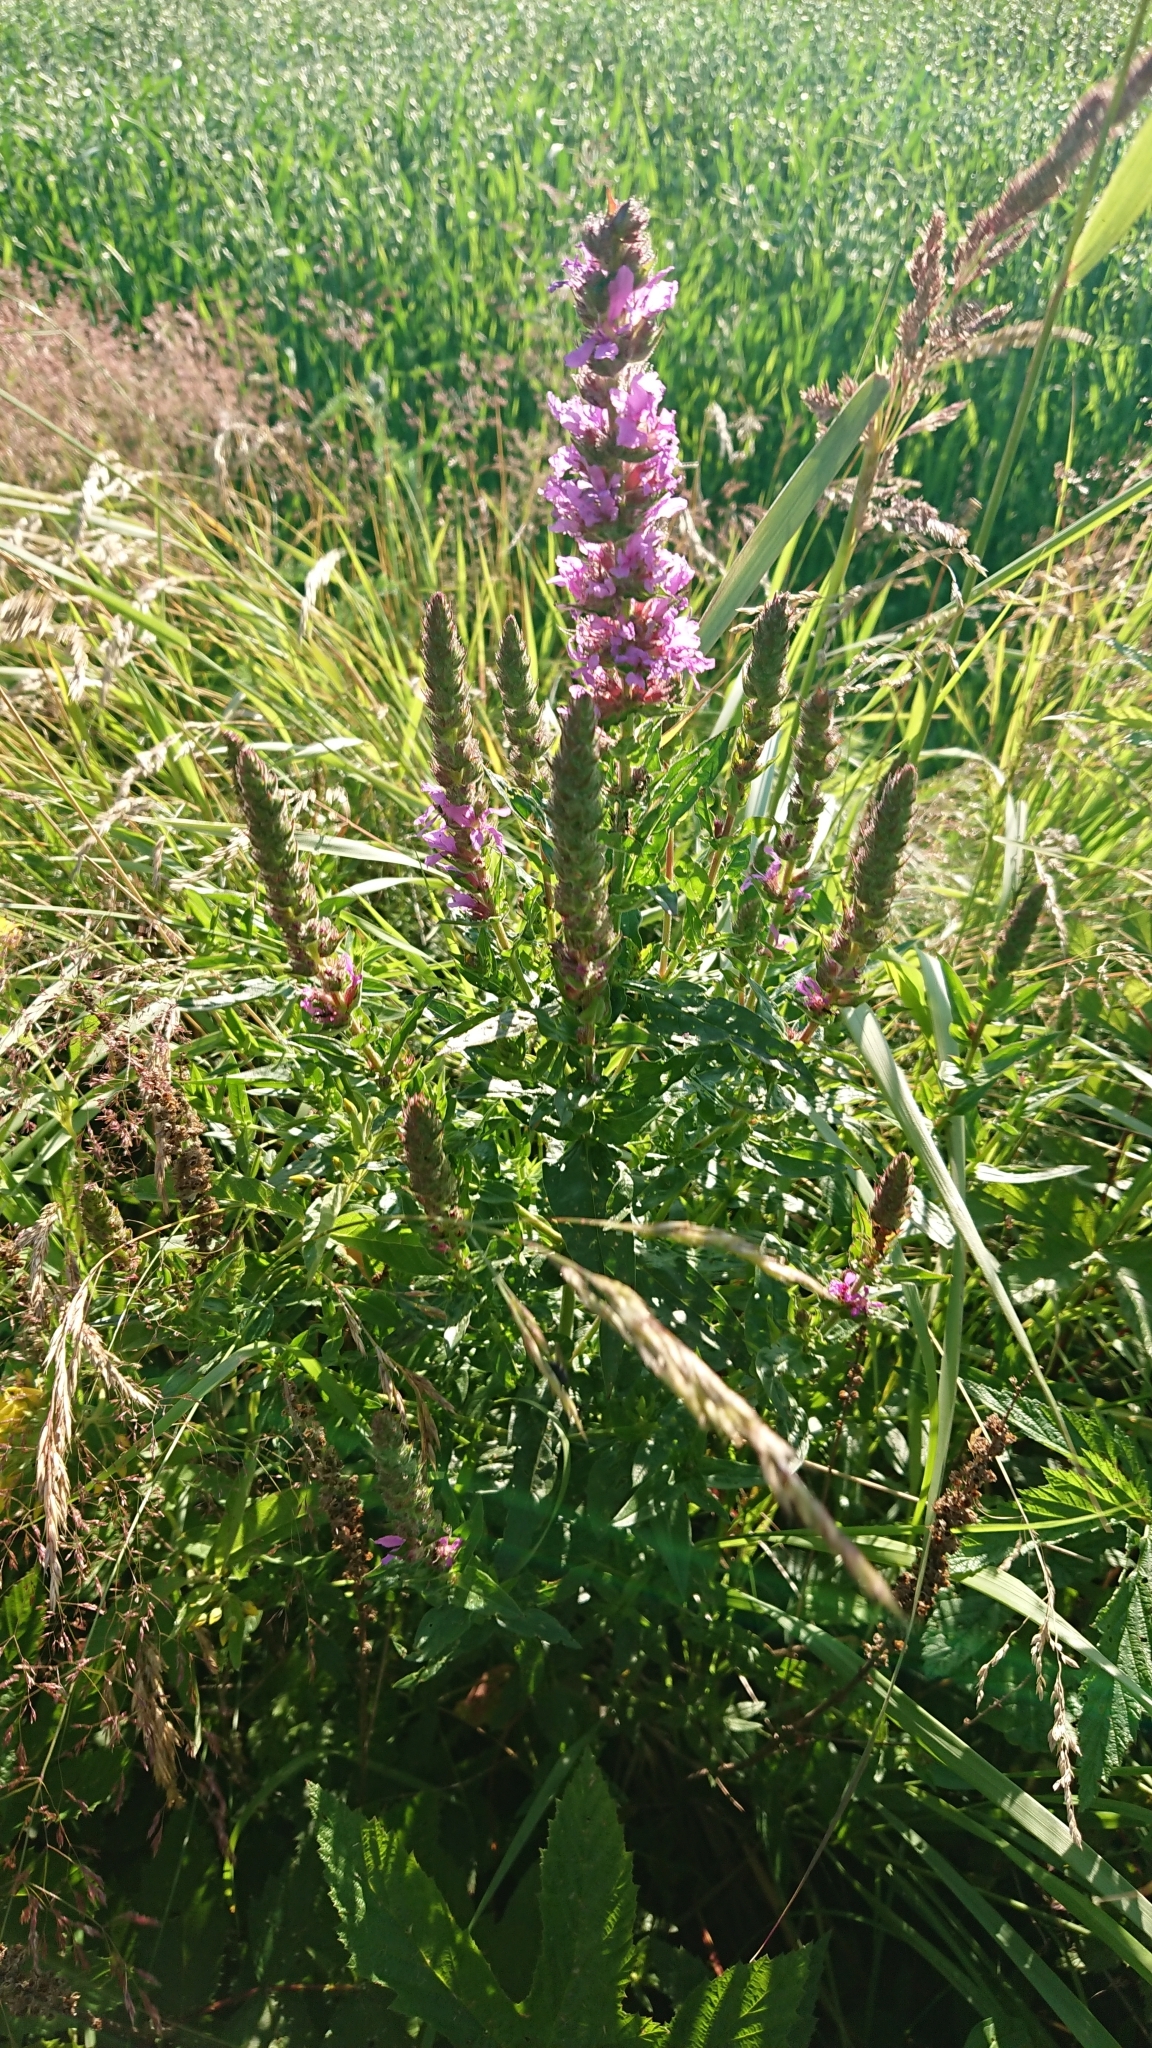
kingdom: Plantae
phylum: Tracheophyta
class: Magnoliopsida
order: Myrtales
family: Lythraceae
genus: Lythrum
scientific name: Lythrum salicaria
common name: Purple loosestrife
